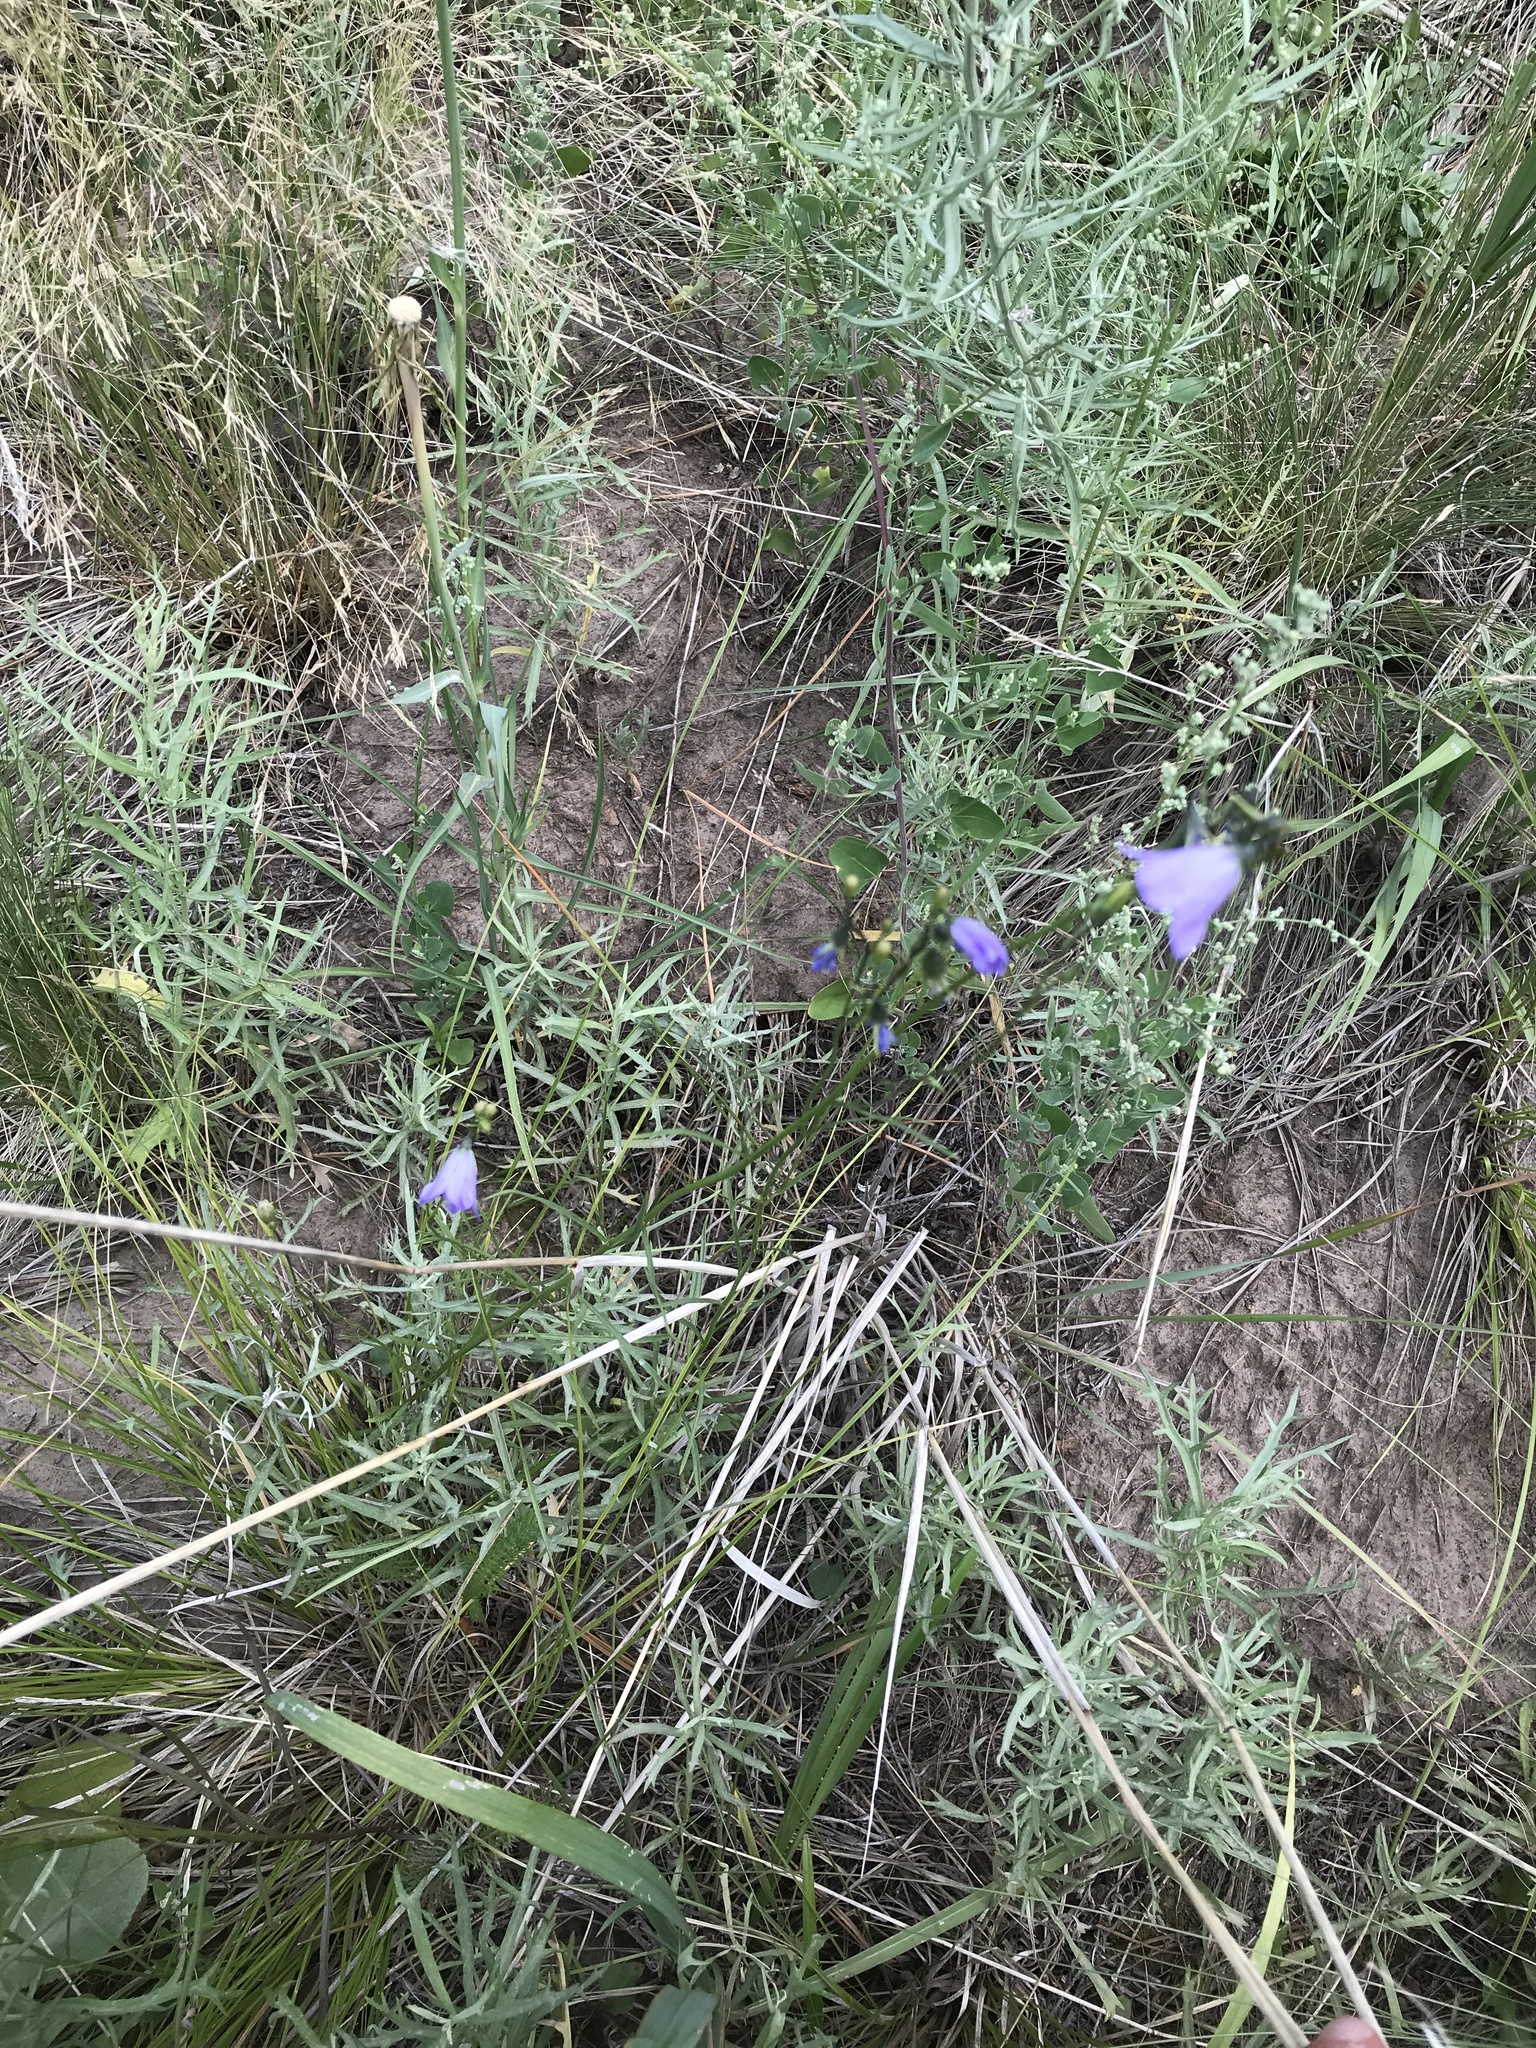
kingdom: Plantae
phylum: Tracheophyta
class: Magnoliopsida
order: Asterales
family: Campanulaceae
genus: Campanula
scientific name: Campanula petiolata
